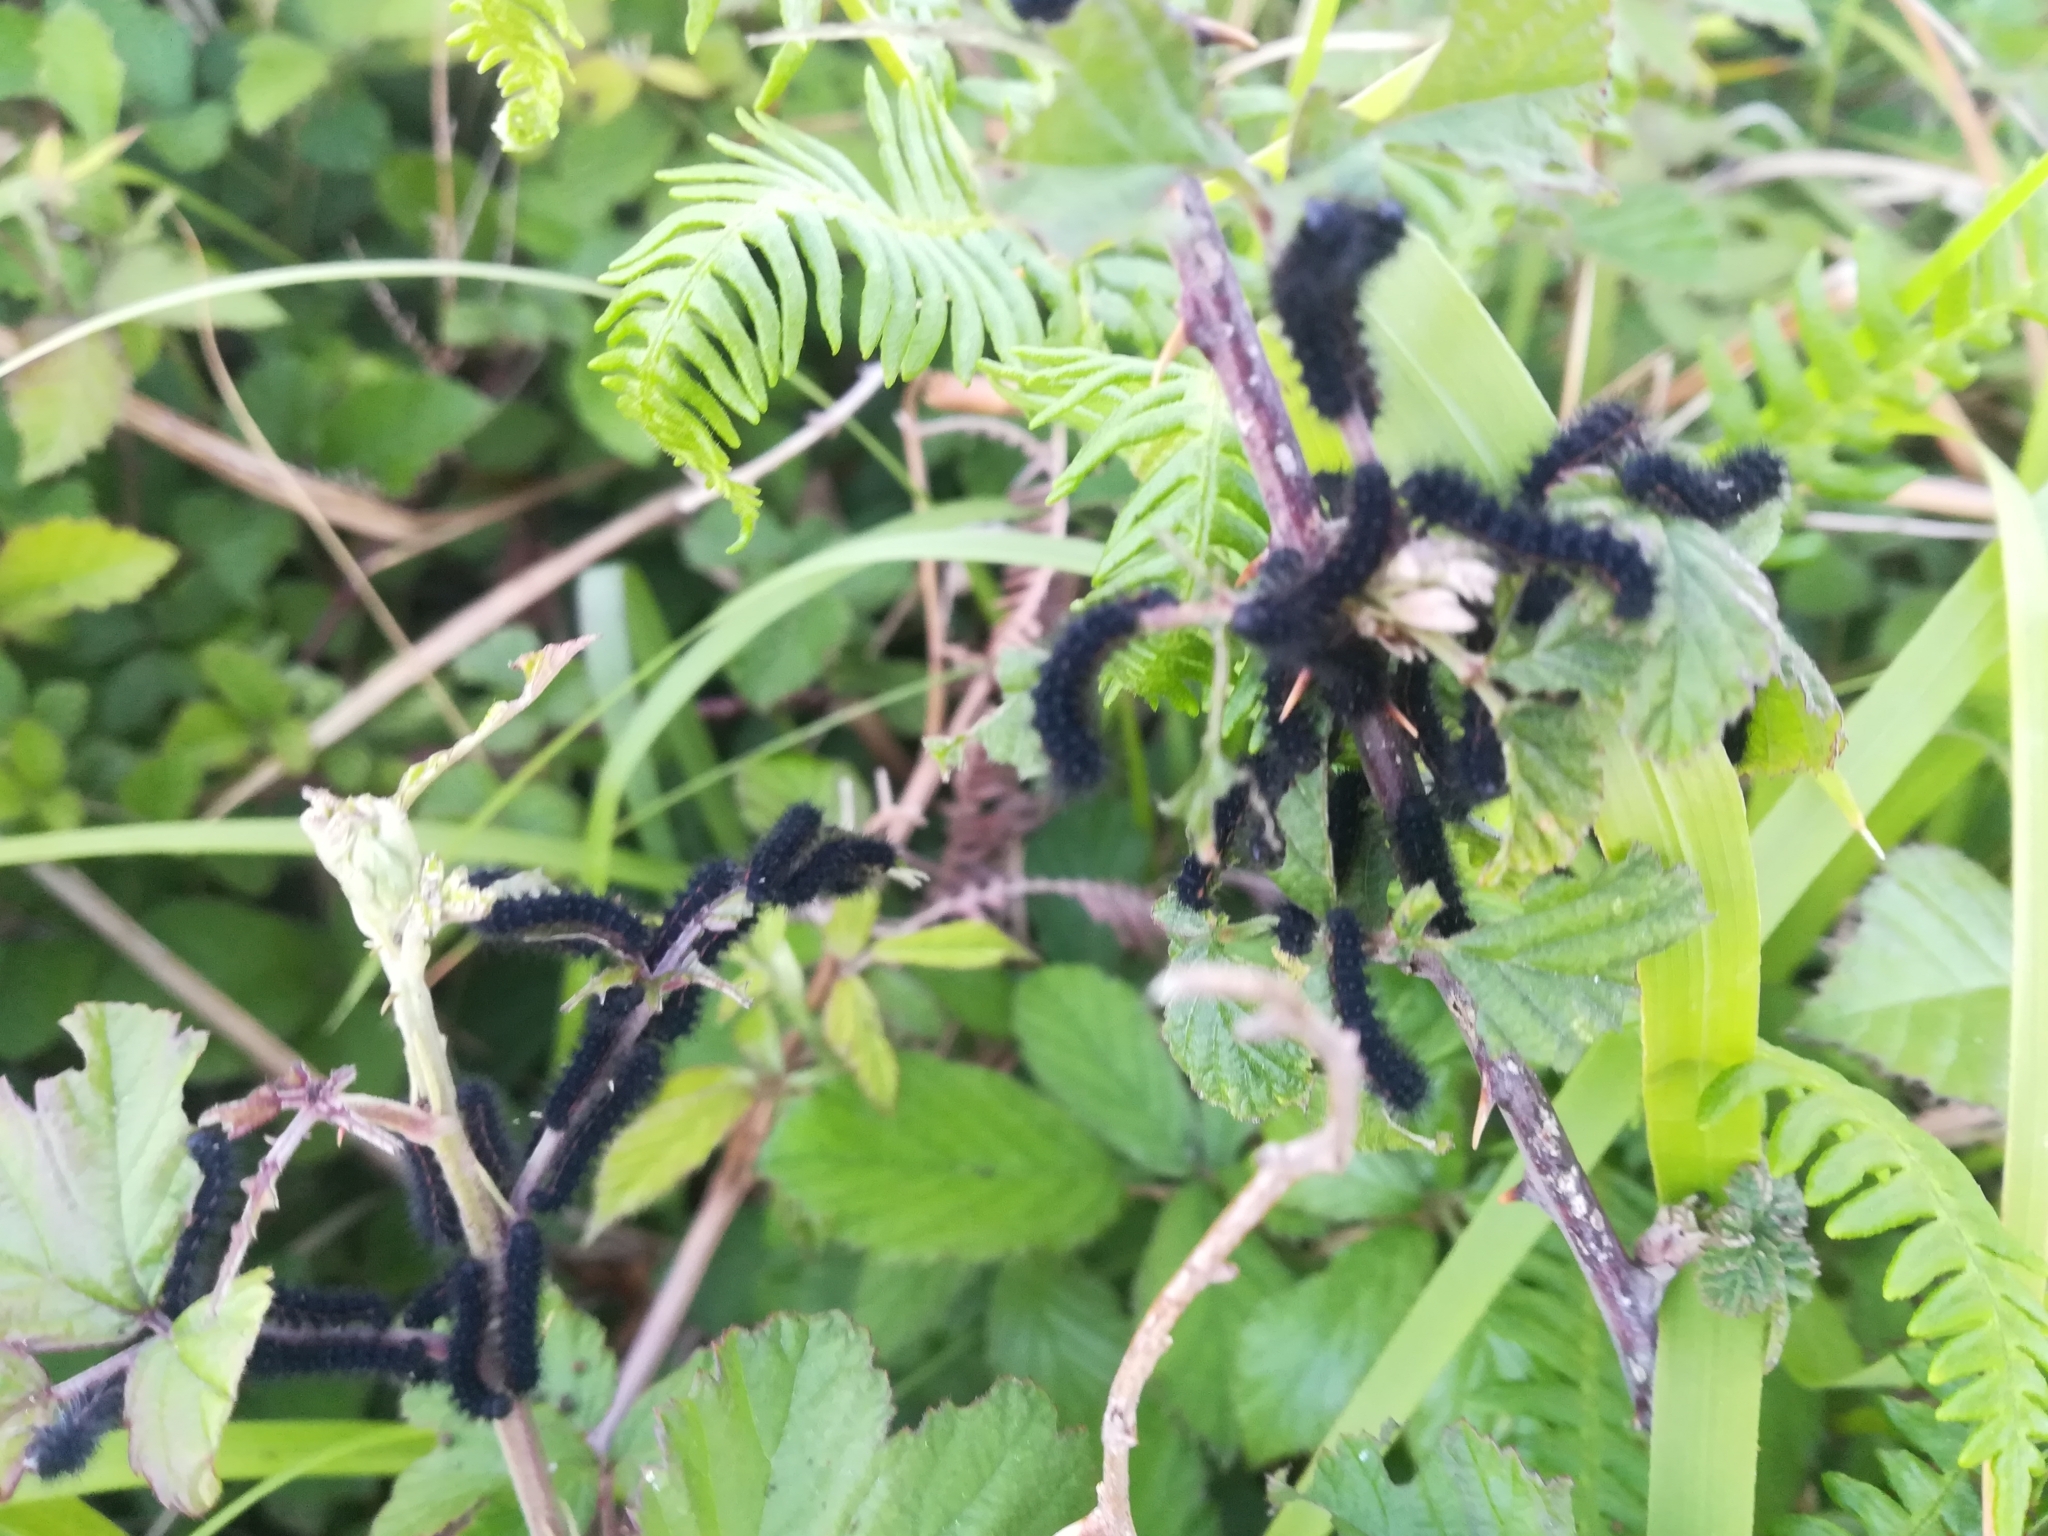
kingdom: Animalia
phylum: Arthropoda
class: Insecta
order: Lepidoptera
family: Saturniidae
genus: Saturnia
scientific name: Saturnia pavoniella
